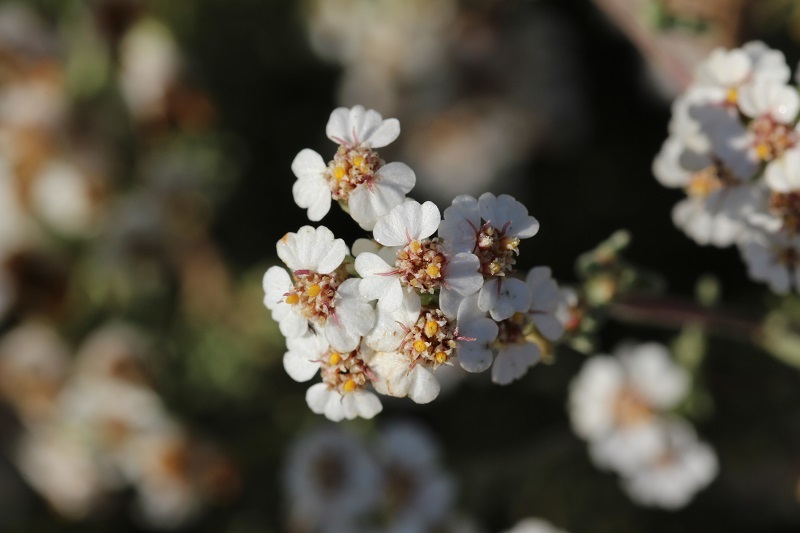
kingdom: Plantae
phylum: Tracheophyta
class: Magnoliopsida
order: Asterales
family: Asteraceae
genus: Eriocephalus
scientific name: Eriocephalus africanus
